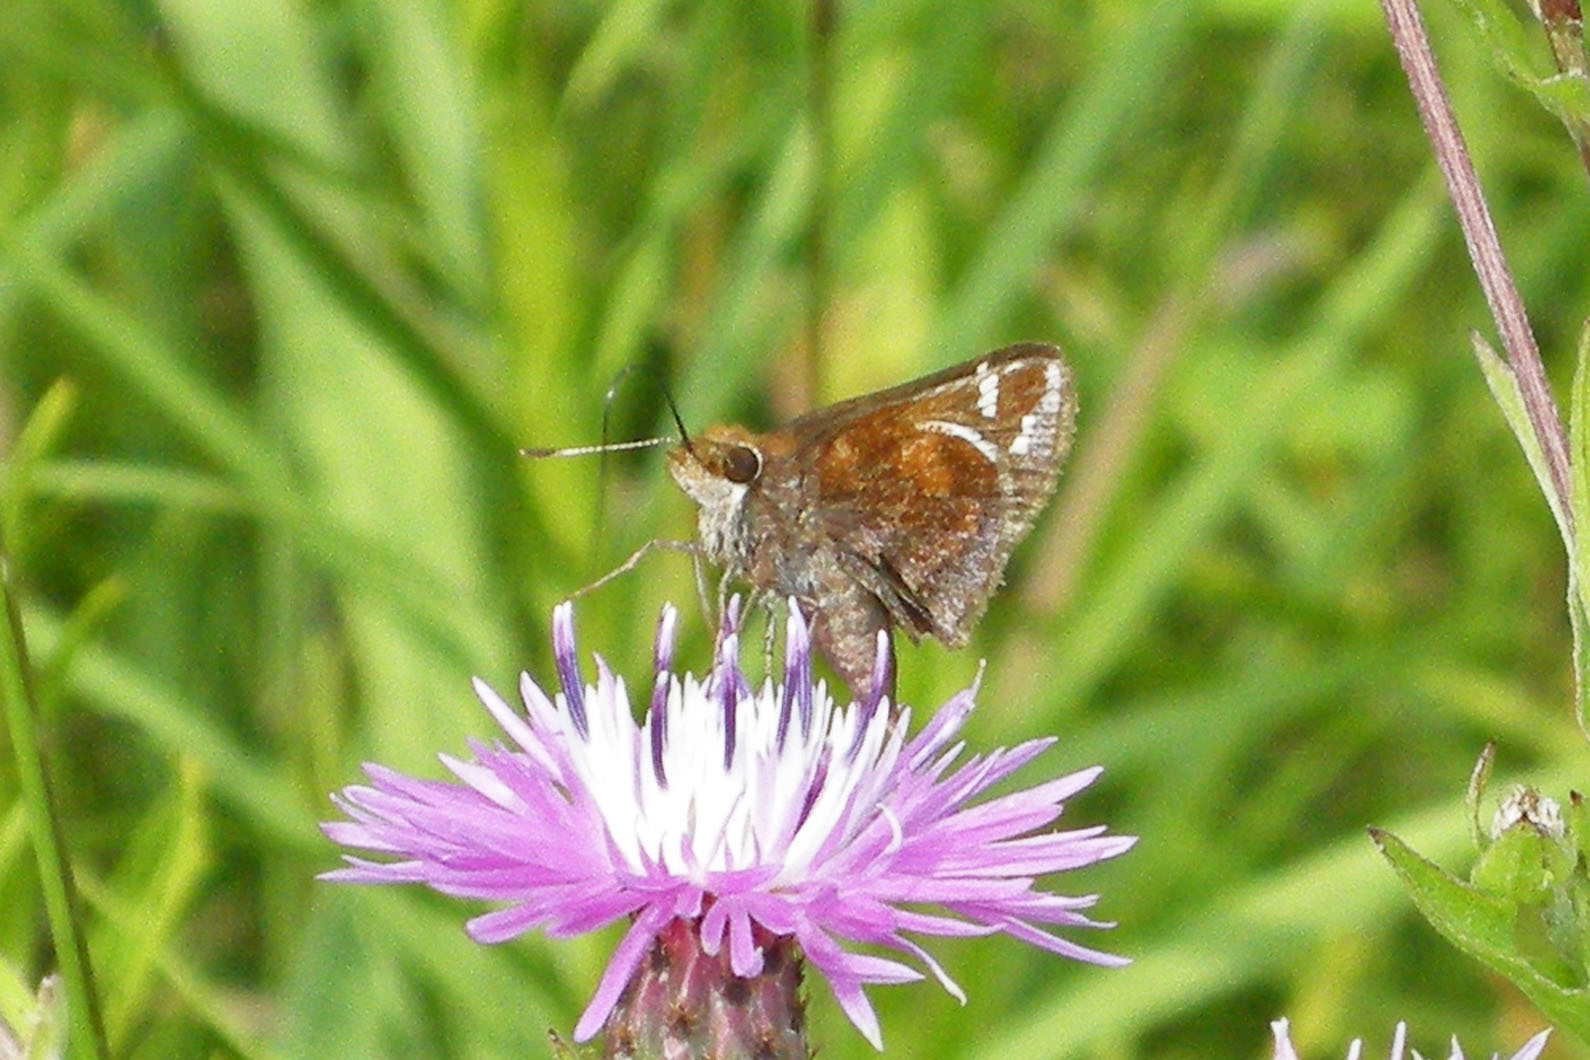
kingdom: Animalia
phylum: Arthropoda
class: Insecta
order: Lepidoptera
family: Hesperiidae
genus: Lon
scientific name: Lon zabulon
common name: Zabulon skipper
